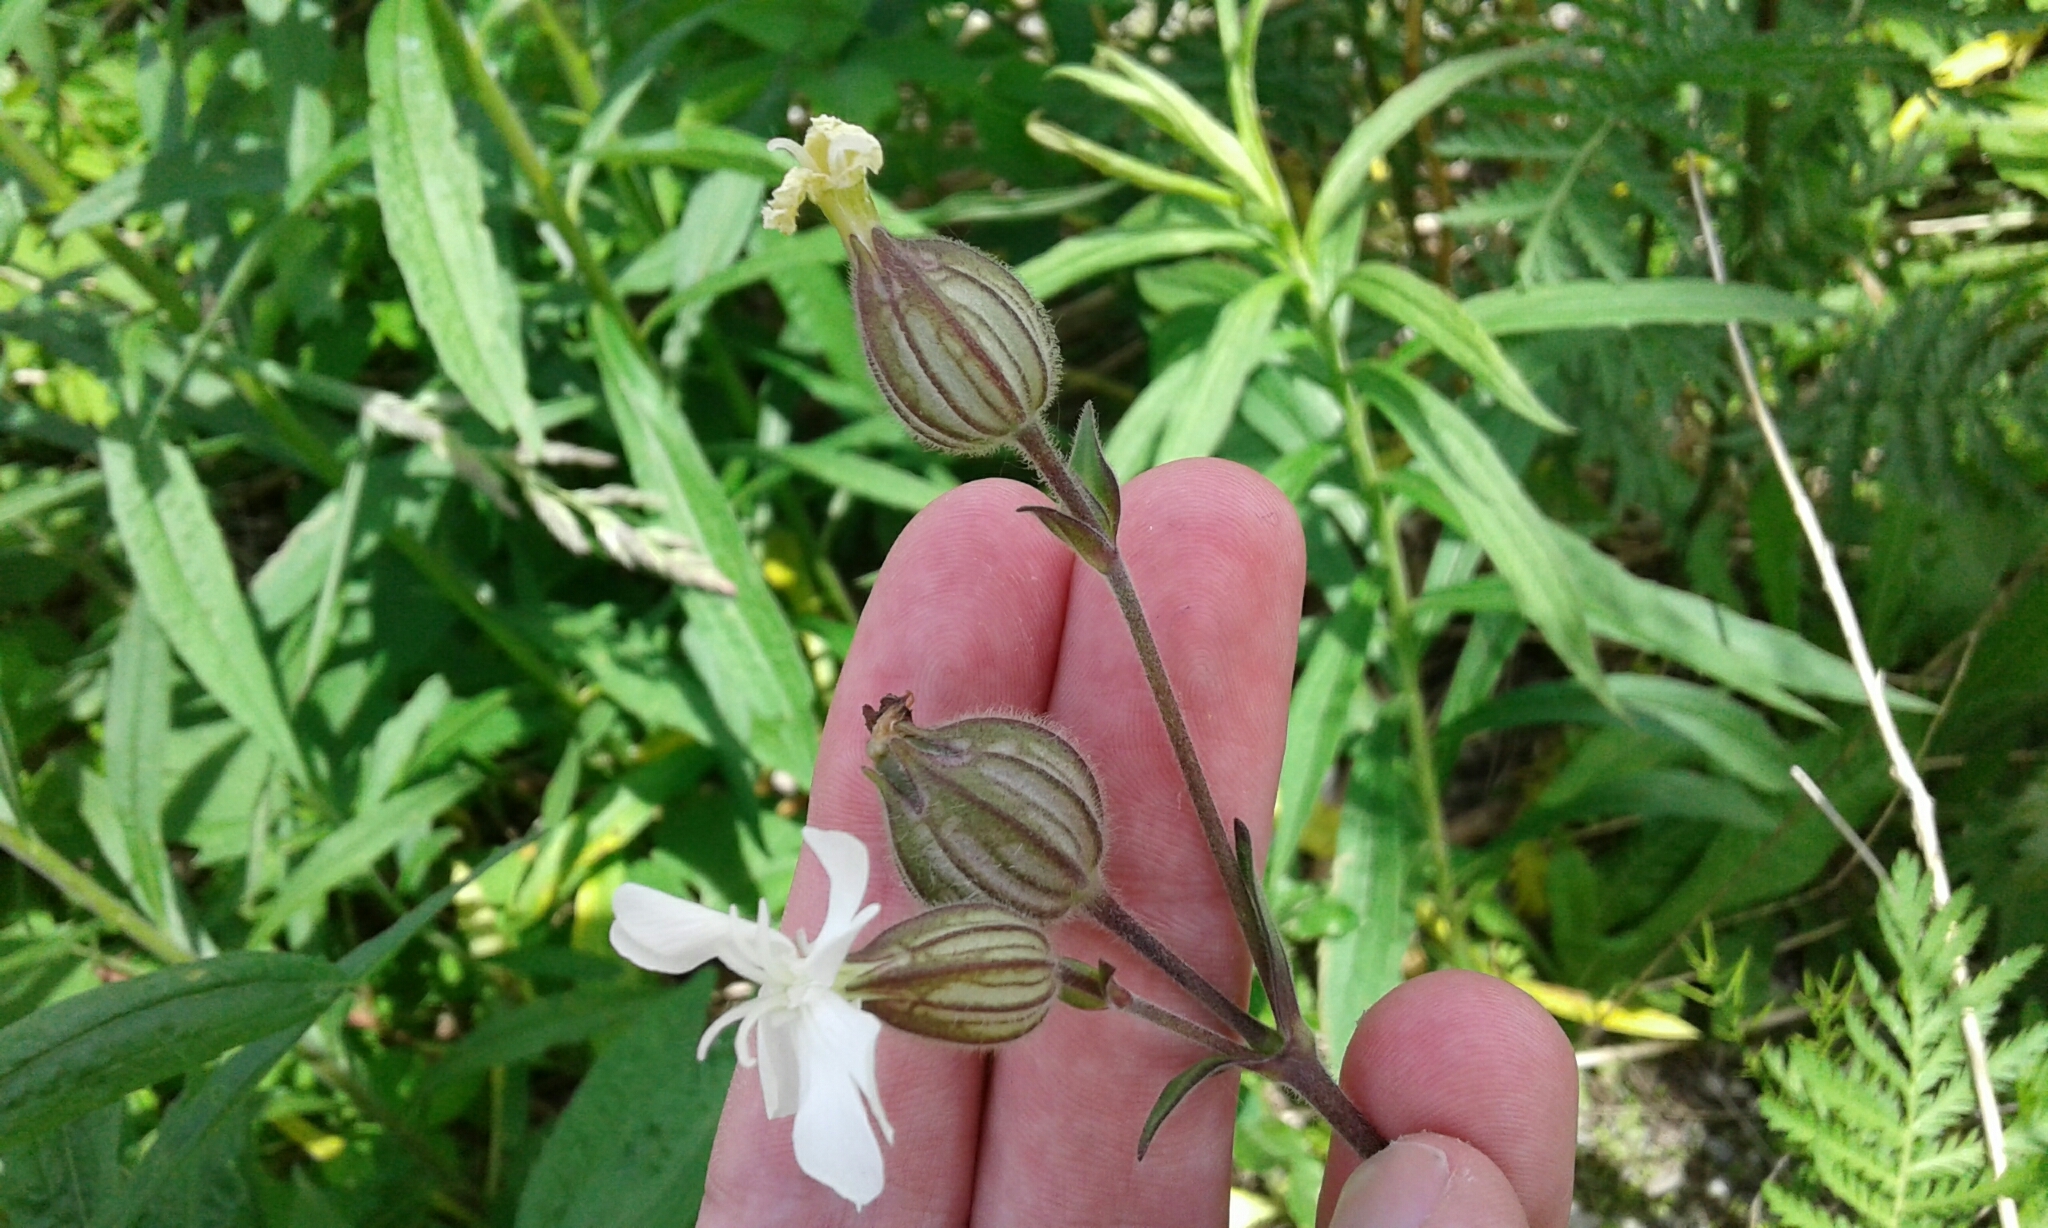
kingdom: Plantae
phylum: Tracheophyta
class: Magnoliopsida
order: Caryophyllales
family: Caryophyllaceae
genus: Silene
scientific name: Silene latifolia
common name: White campion
